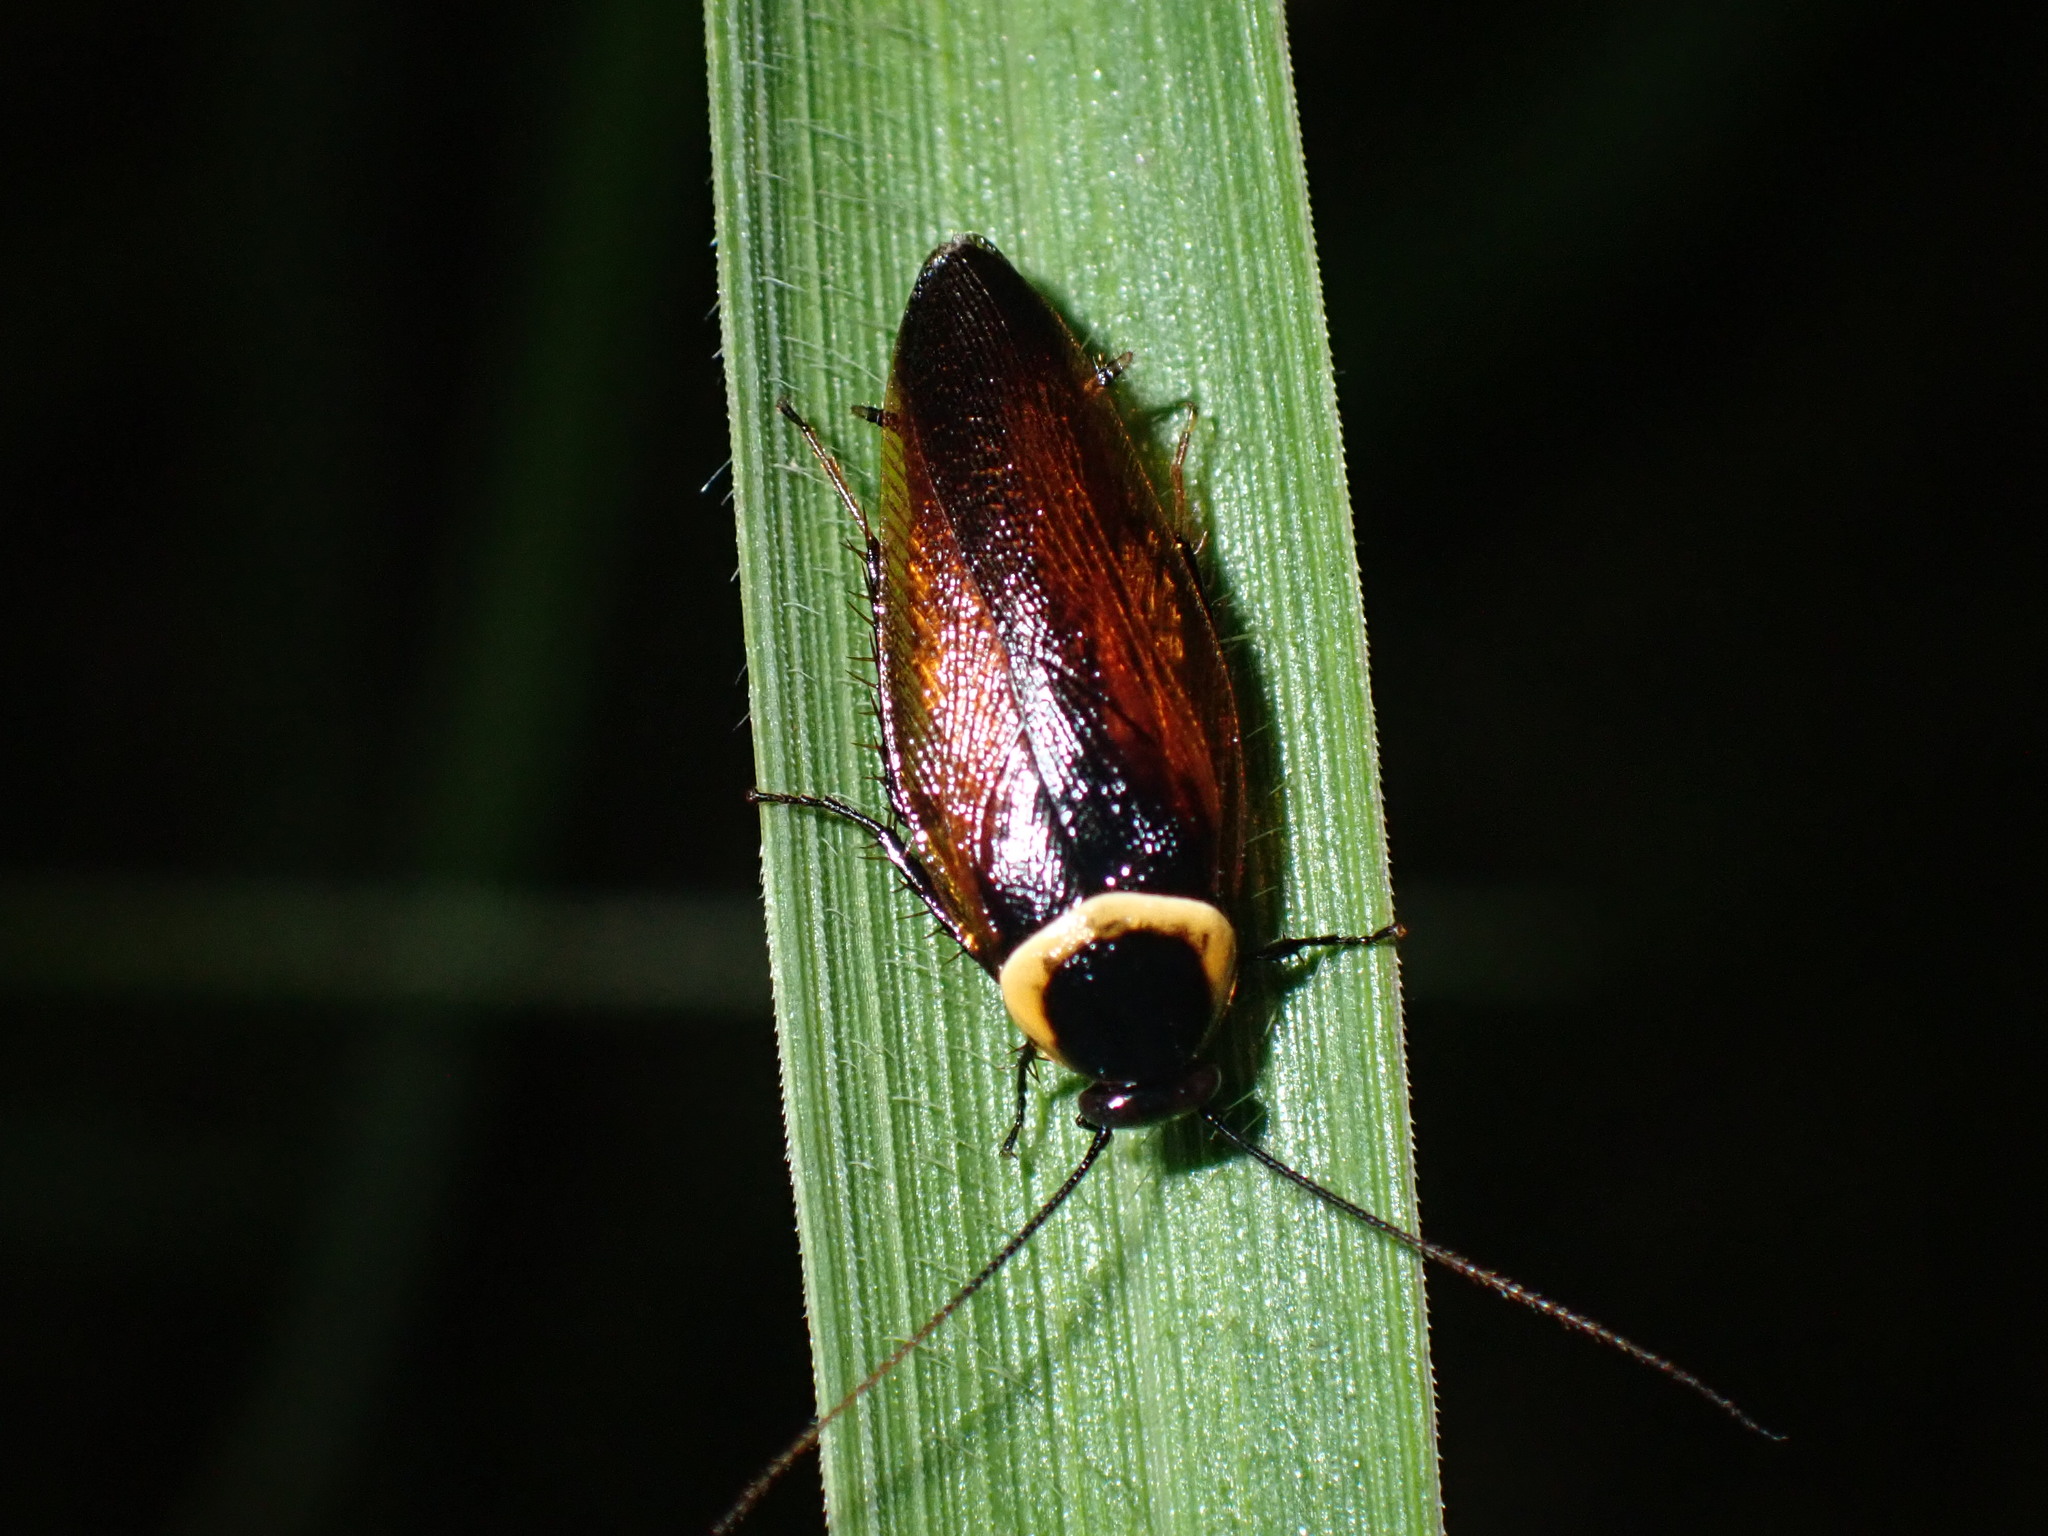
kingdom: Animalia
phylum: Arthropoda
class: Insecta
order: Blattodea
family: Ectobiidae
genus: Hemithyrsocera
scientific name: Hemithyrsocera palliata
